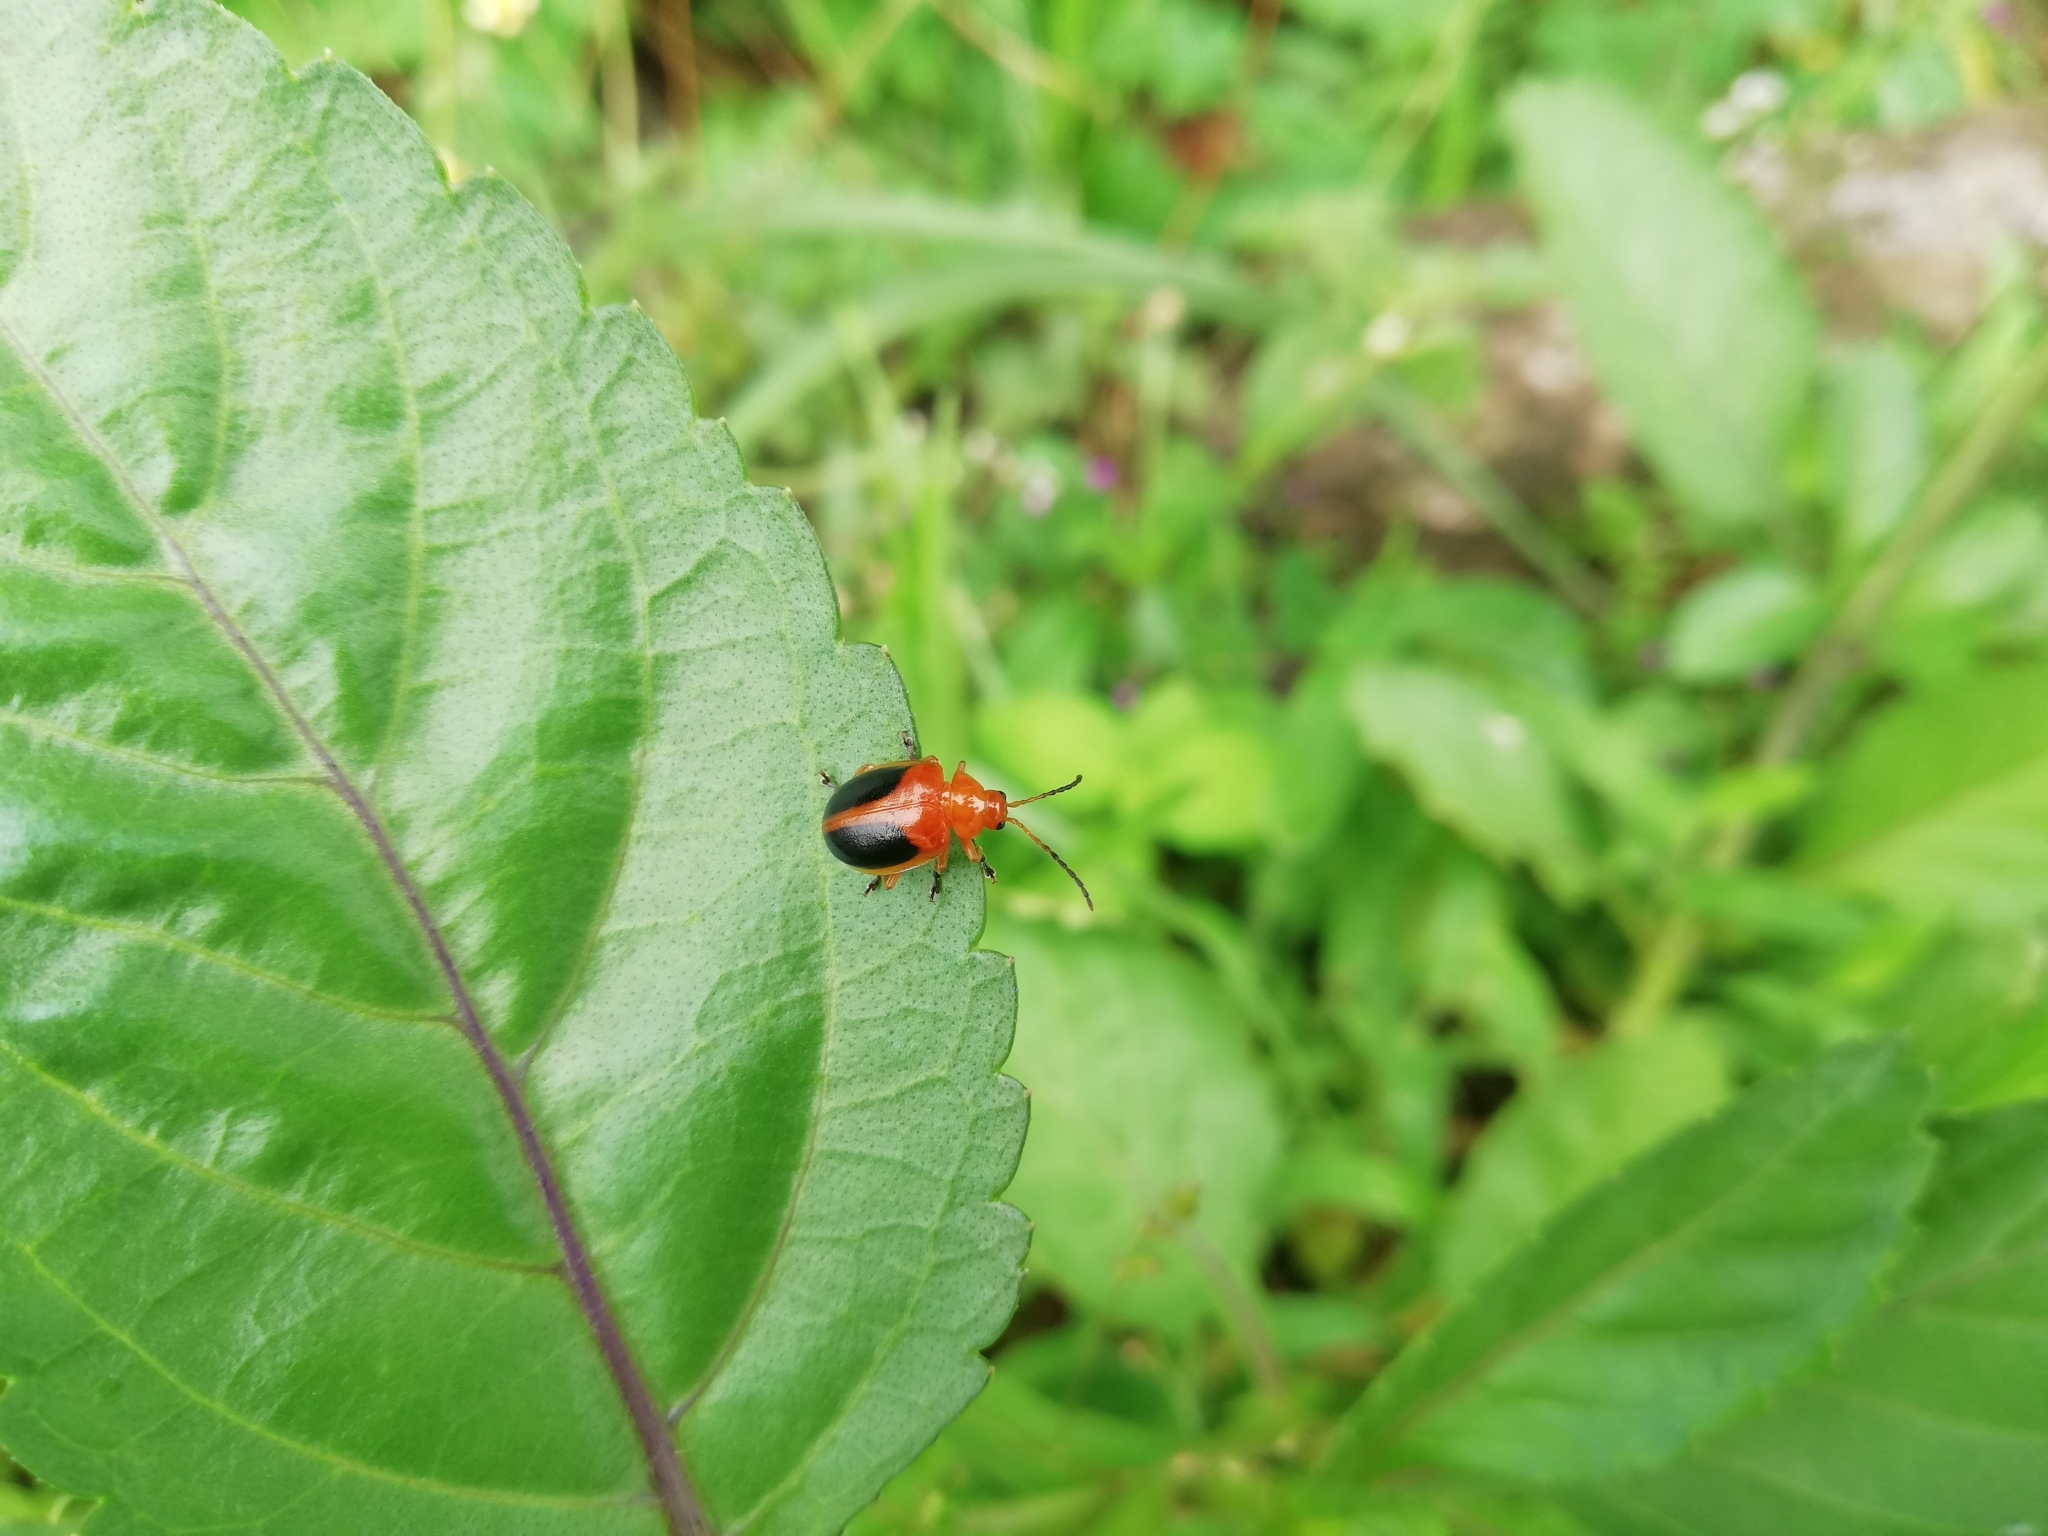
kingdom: Animalia
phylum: Arthropoda
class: Insecta
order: Coleoptera
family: Chrysomelidae
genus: Oides
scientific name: Oides affinis
